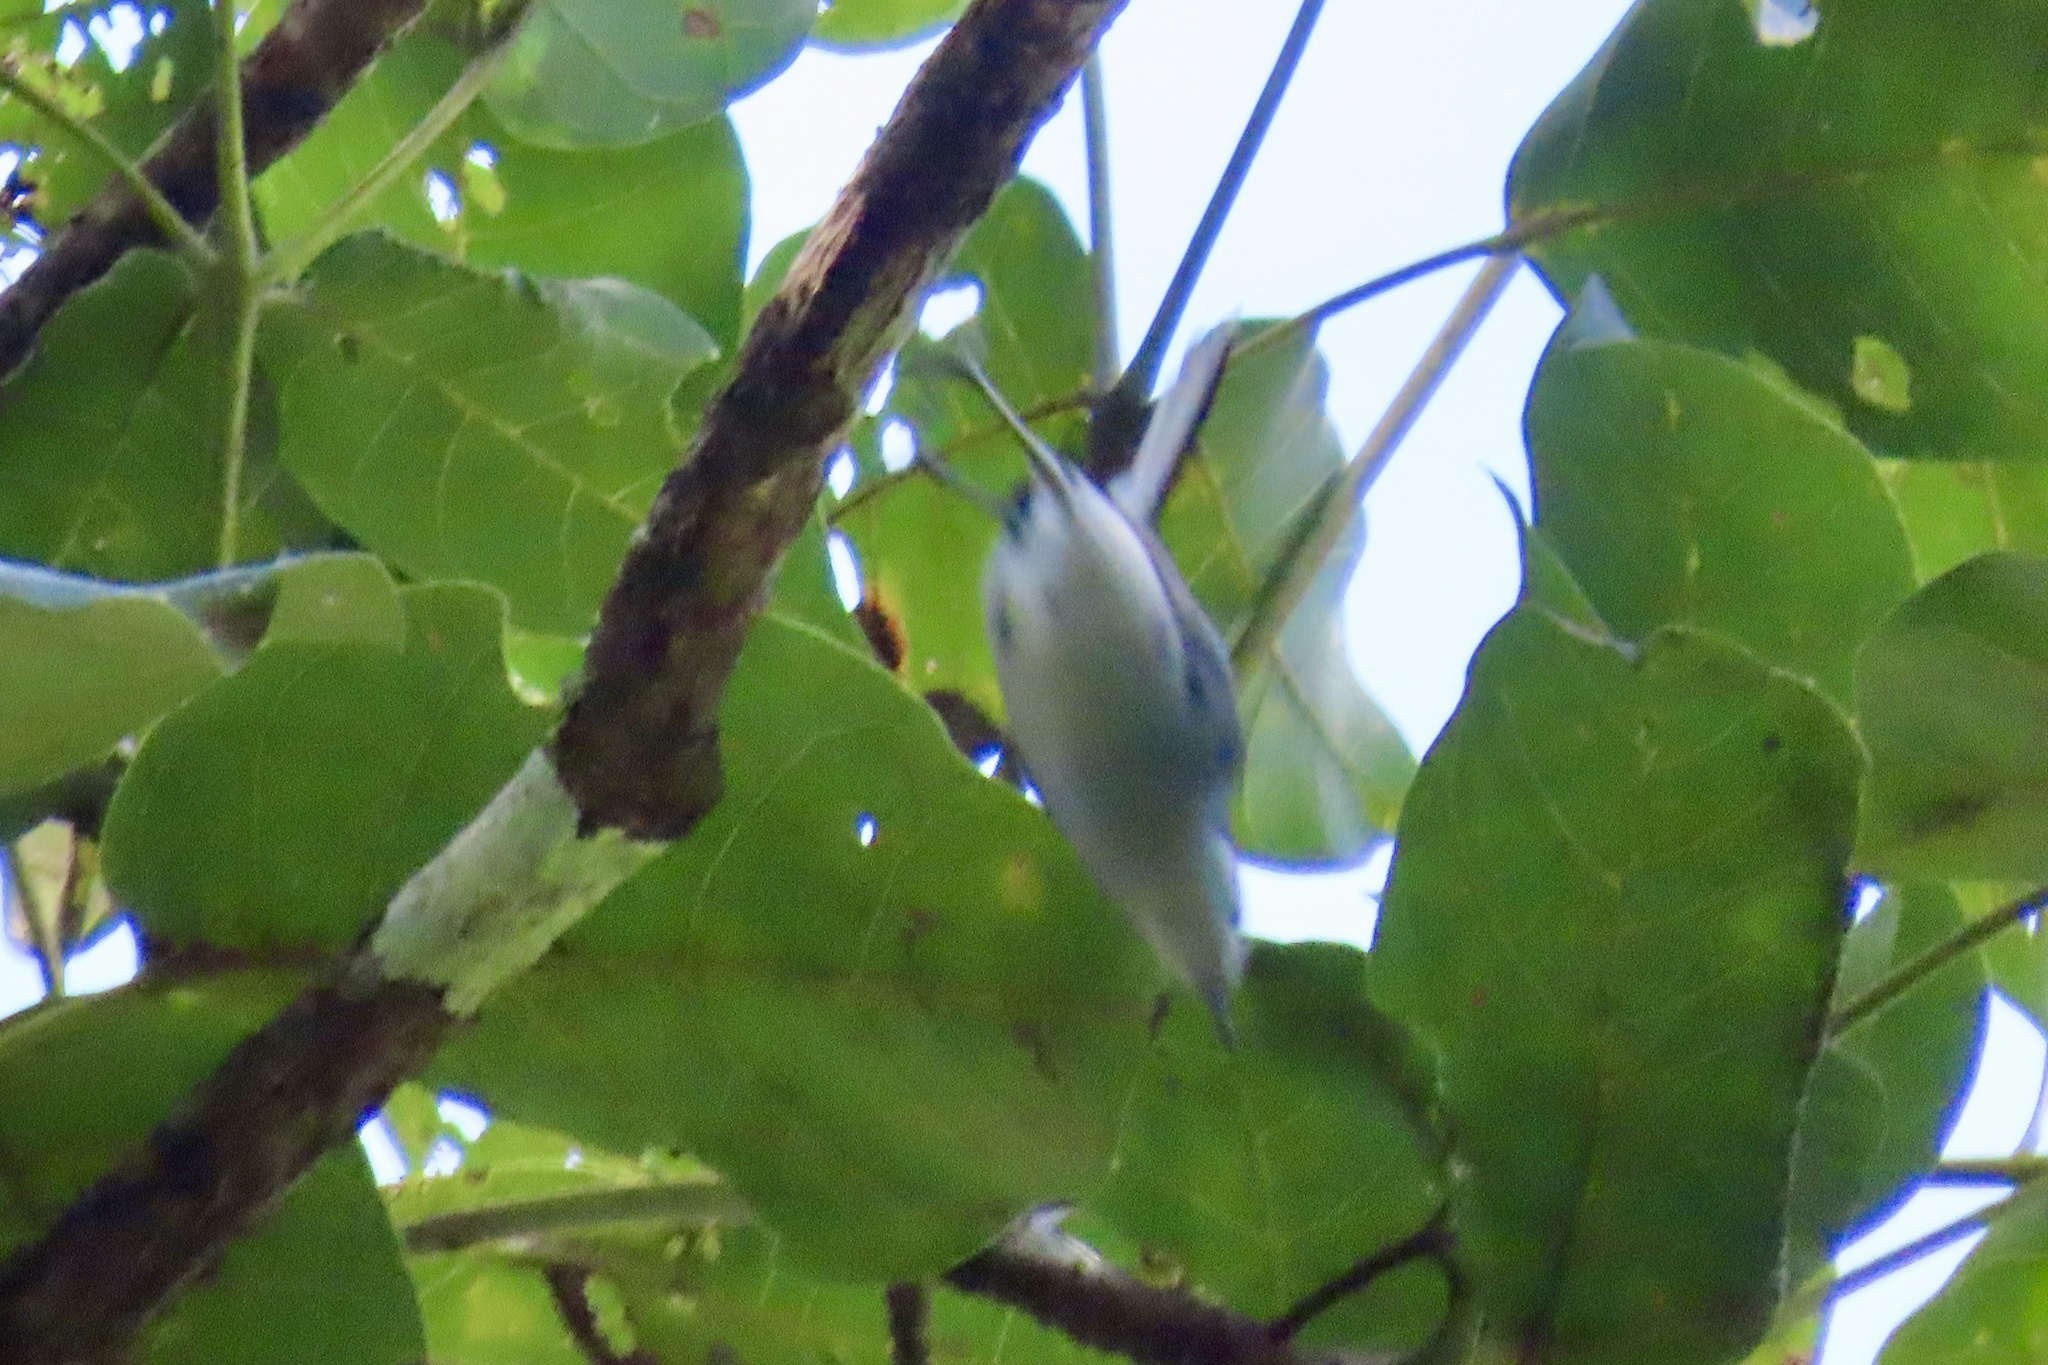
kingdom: Animalia
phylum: Chordata
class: Aves
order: Passeriformes
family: Polioptilidae
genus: Polioptila
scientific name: Polioptila plumbea
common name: Tropical gnatcatcher
